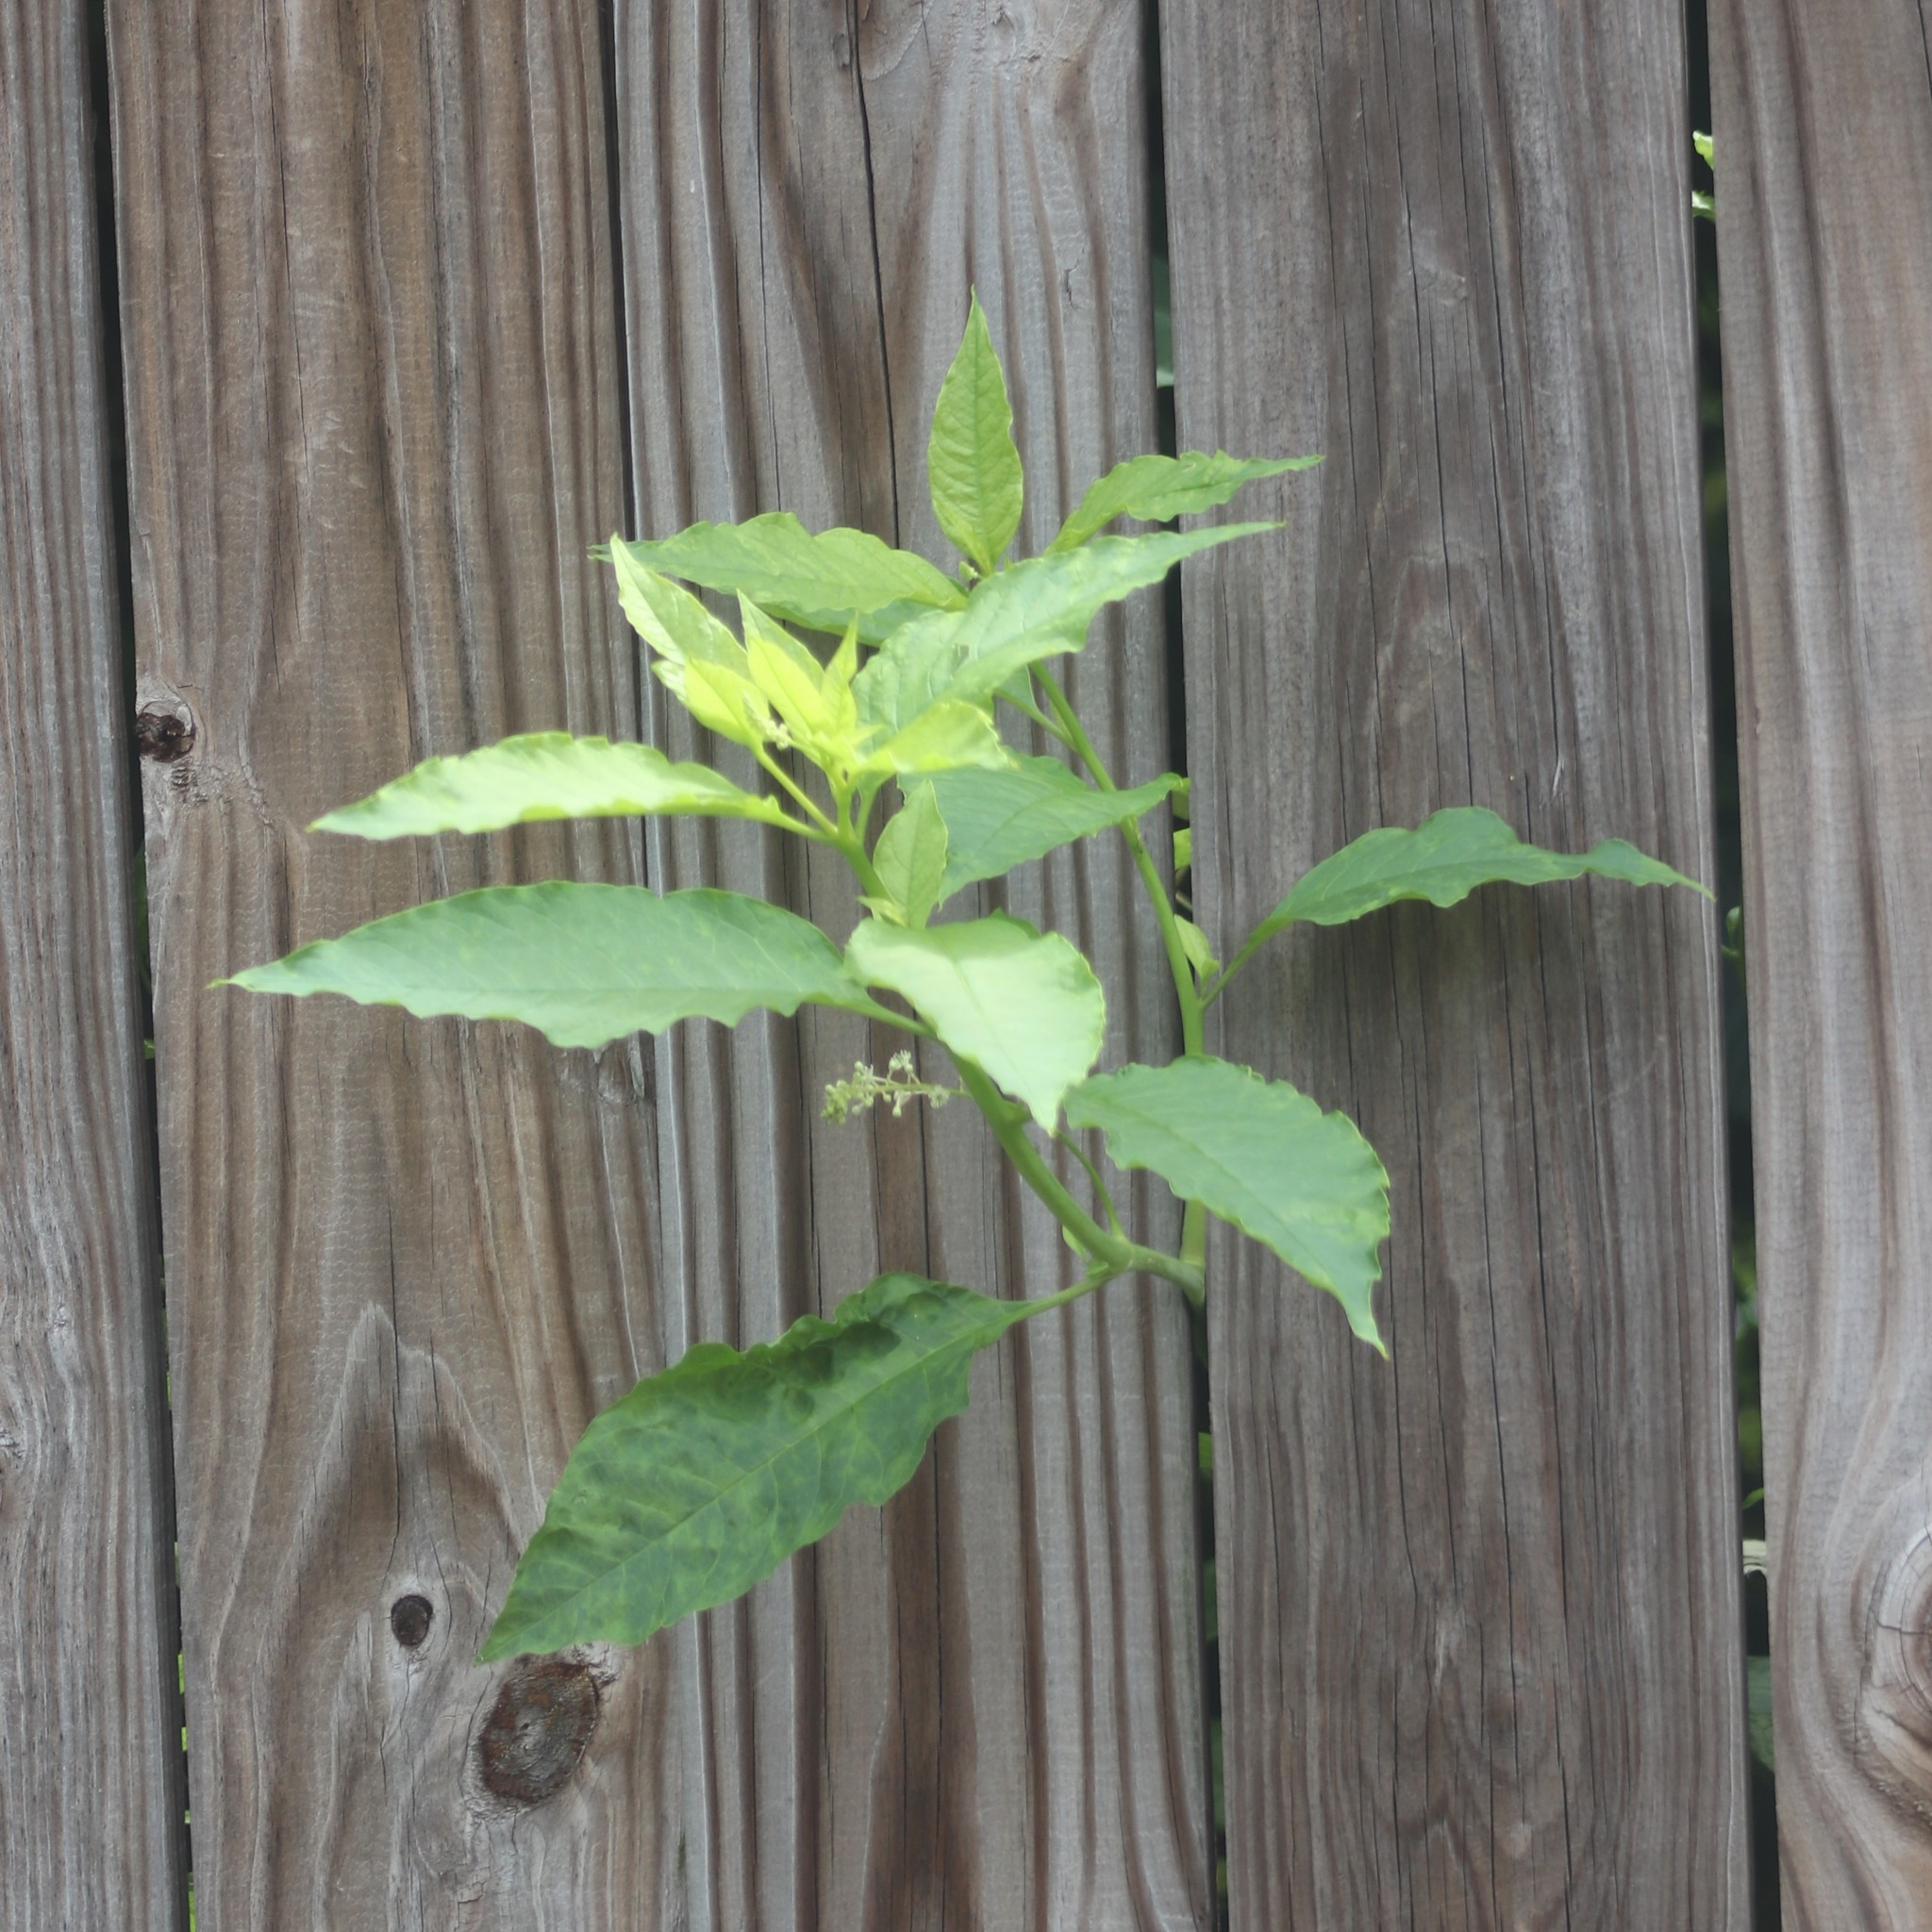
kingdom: Plantae
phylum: Tracheophyta
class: Magnoliopsida
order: Caryophyllales
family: Phytolaccaceae
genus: Phytolacca
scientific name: Phytolacca americana
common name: American pokeweed
